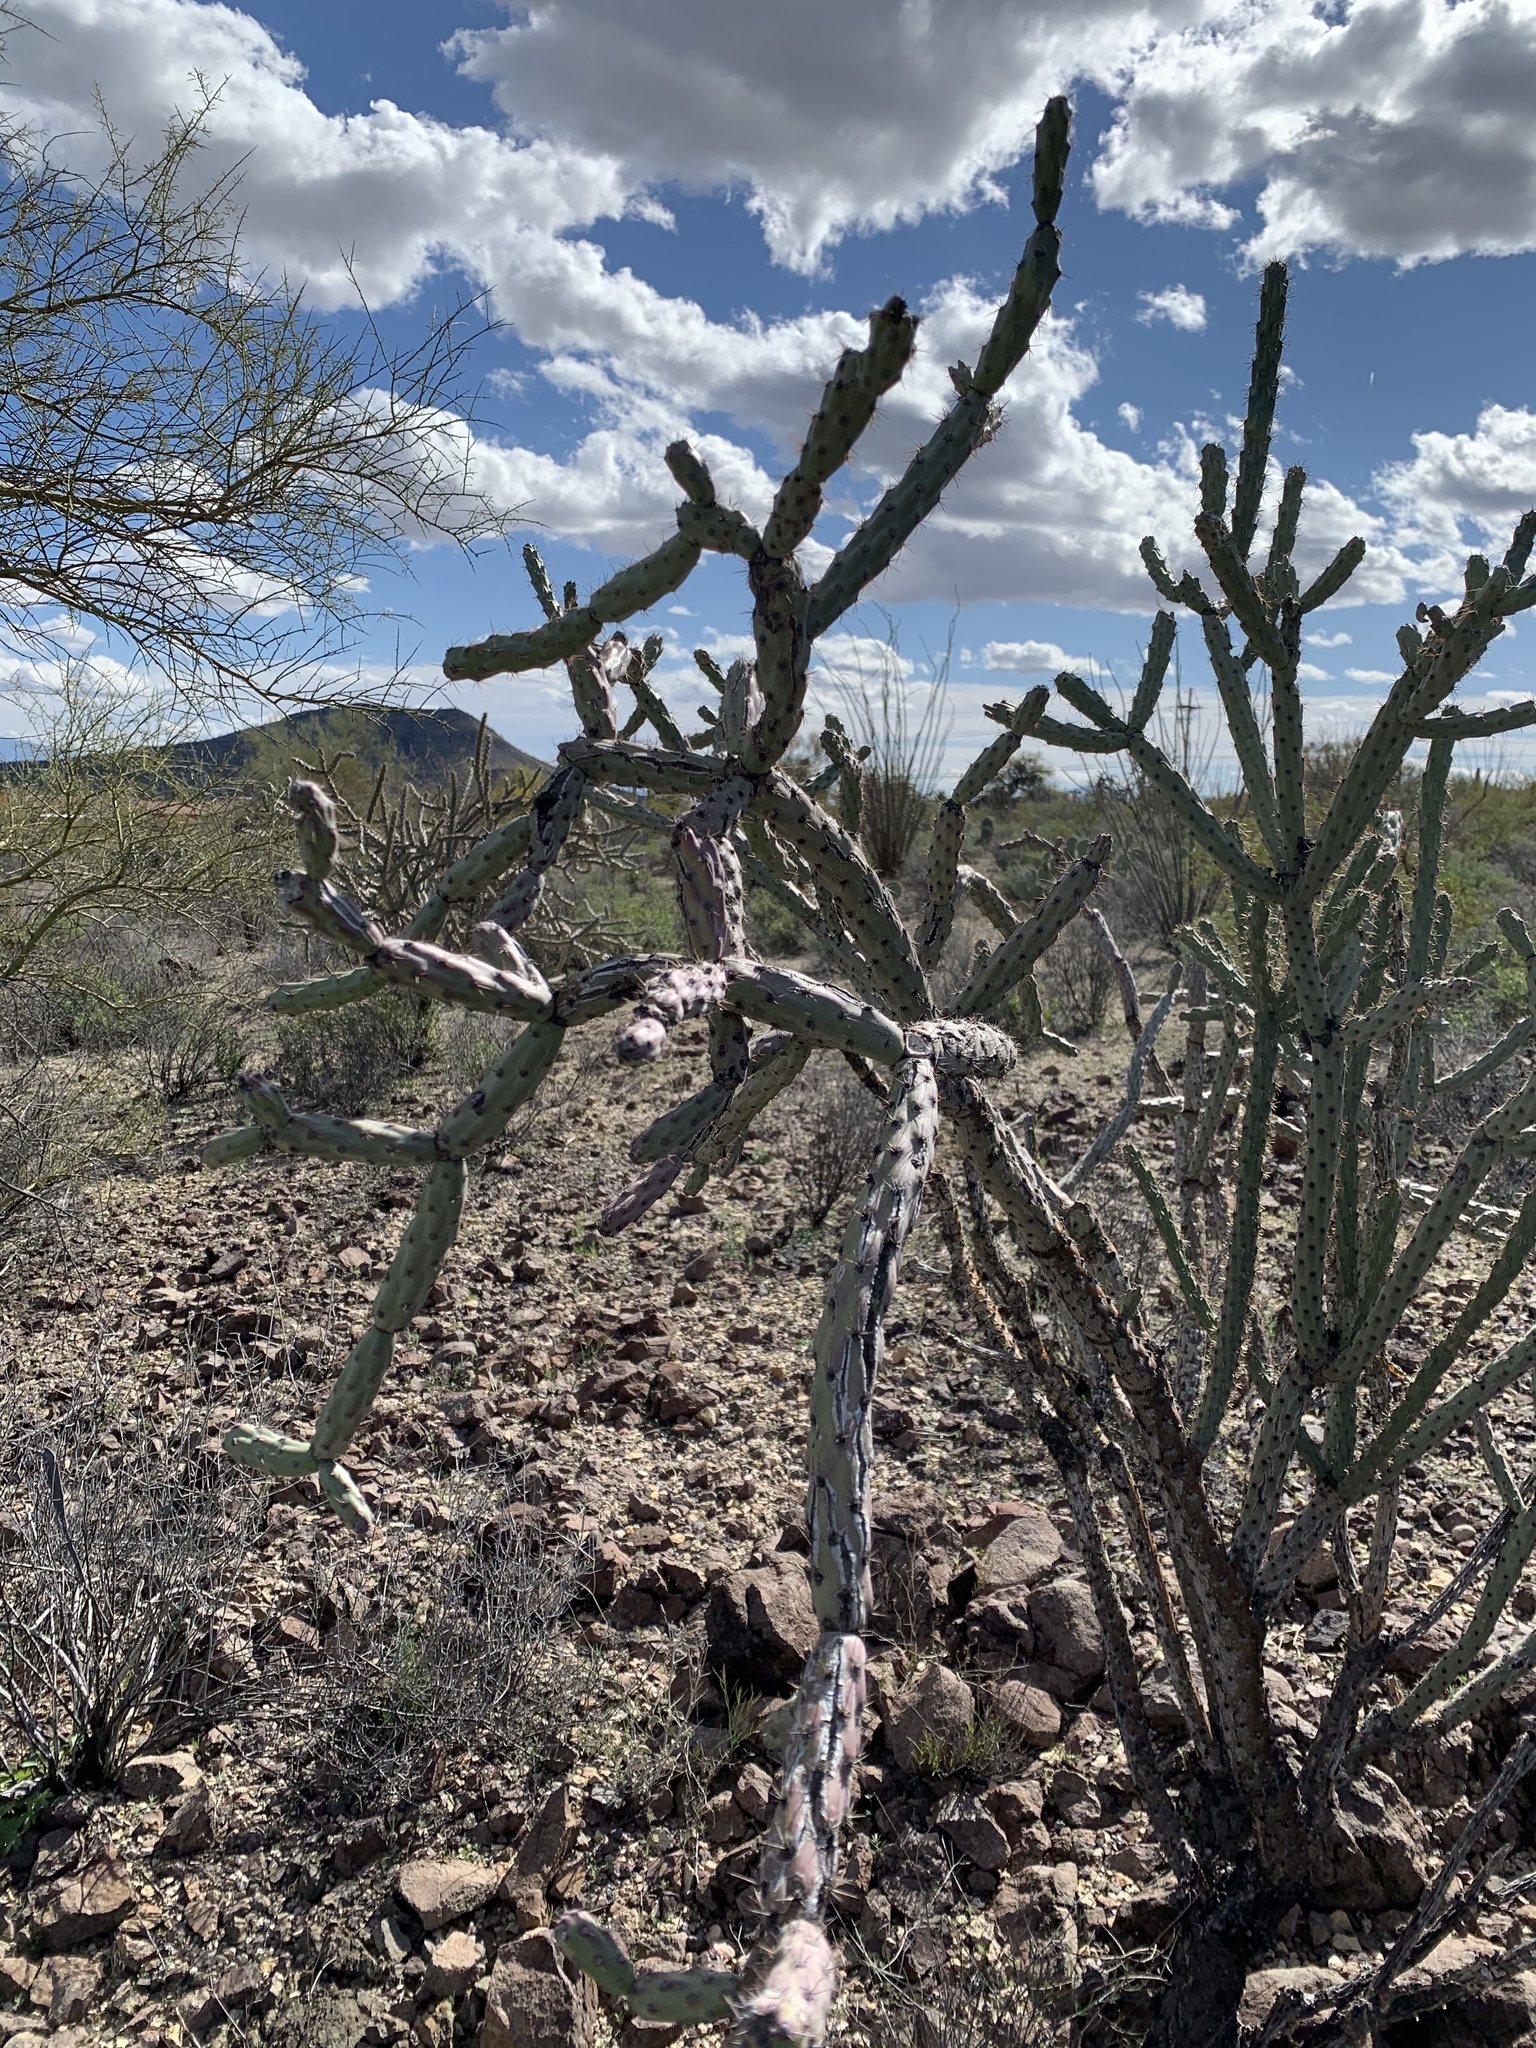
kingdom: Plantae
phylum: Tracheophyta
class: Magnoliopsida
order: Caryophyllales
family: Cactaceae
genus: Cylindropuntia
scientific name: Cylindropuntia acanthocarpa
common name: Buckhorn cholla
